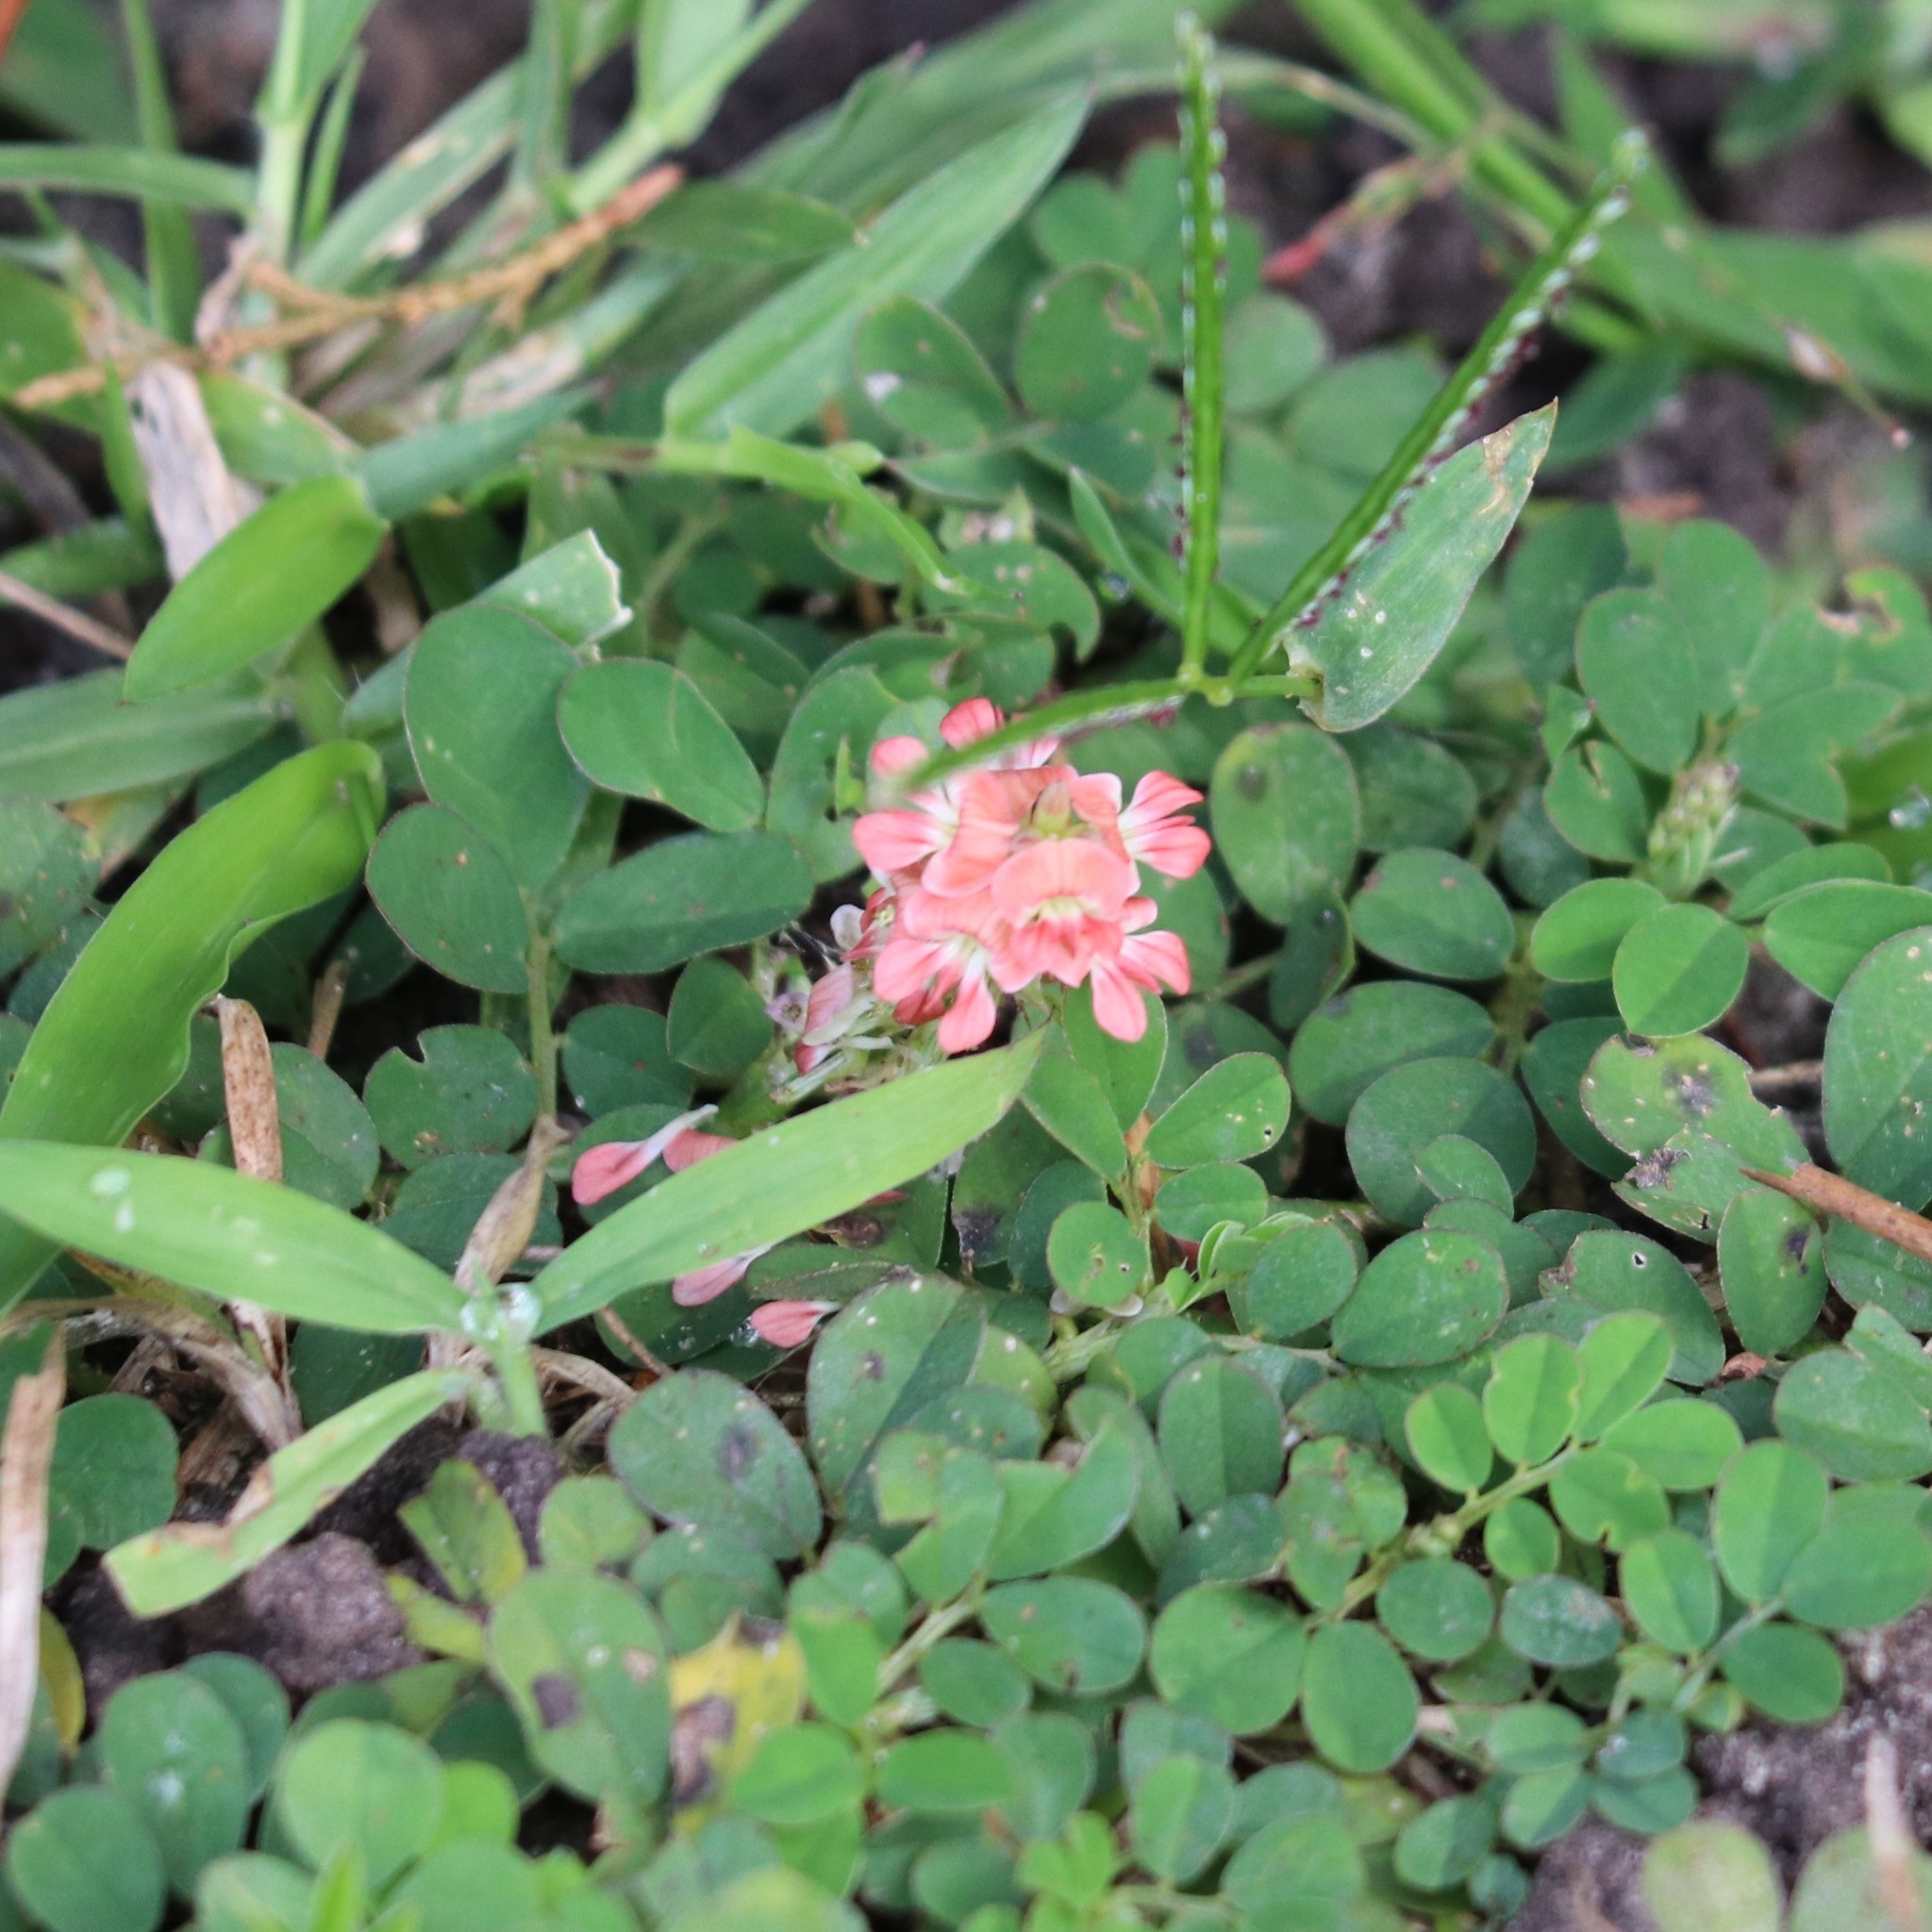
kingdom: Plantae
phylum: Tracheophyta
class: Magnoliopsida
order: Fabales
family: Fabaceae
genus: Indigofera
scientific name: Indigofera spicata
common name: Creeping indigo
